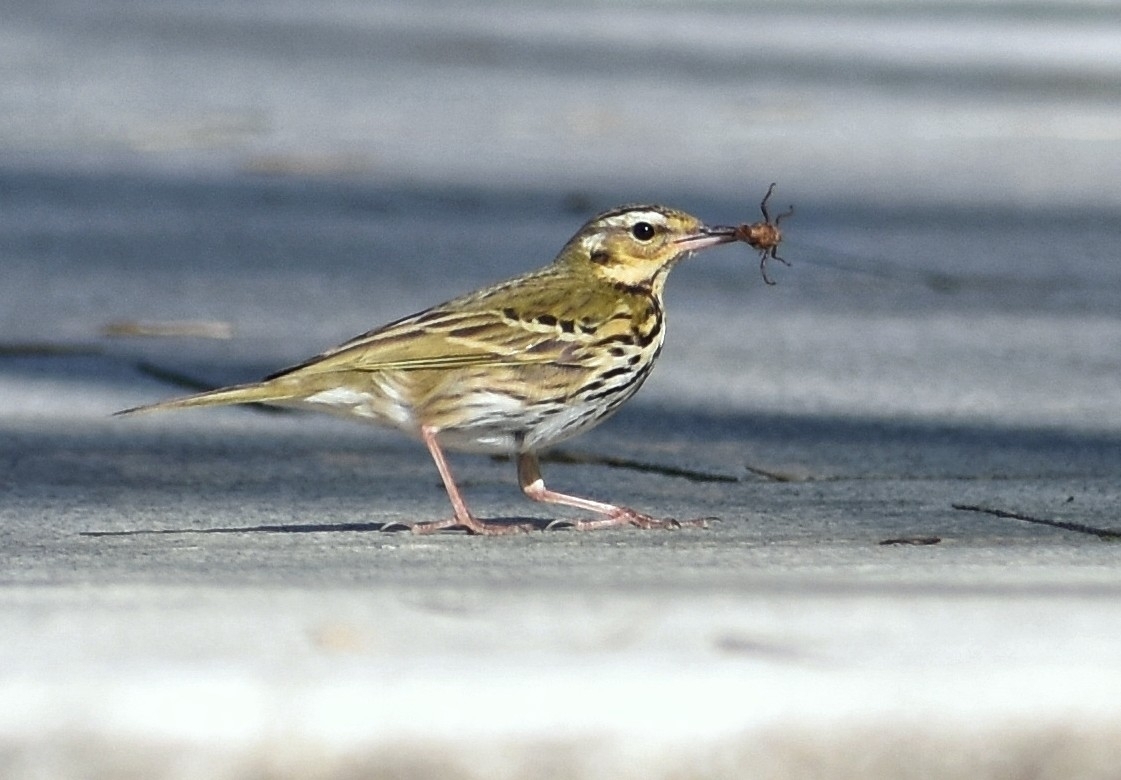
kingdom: Animalia
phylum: Chordata
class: Aves
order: Passeriformes
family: Motacillidae
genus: Anthus
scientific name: Anthus hodgsoni
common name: Olive-backed pipit
